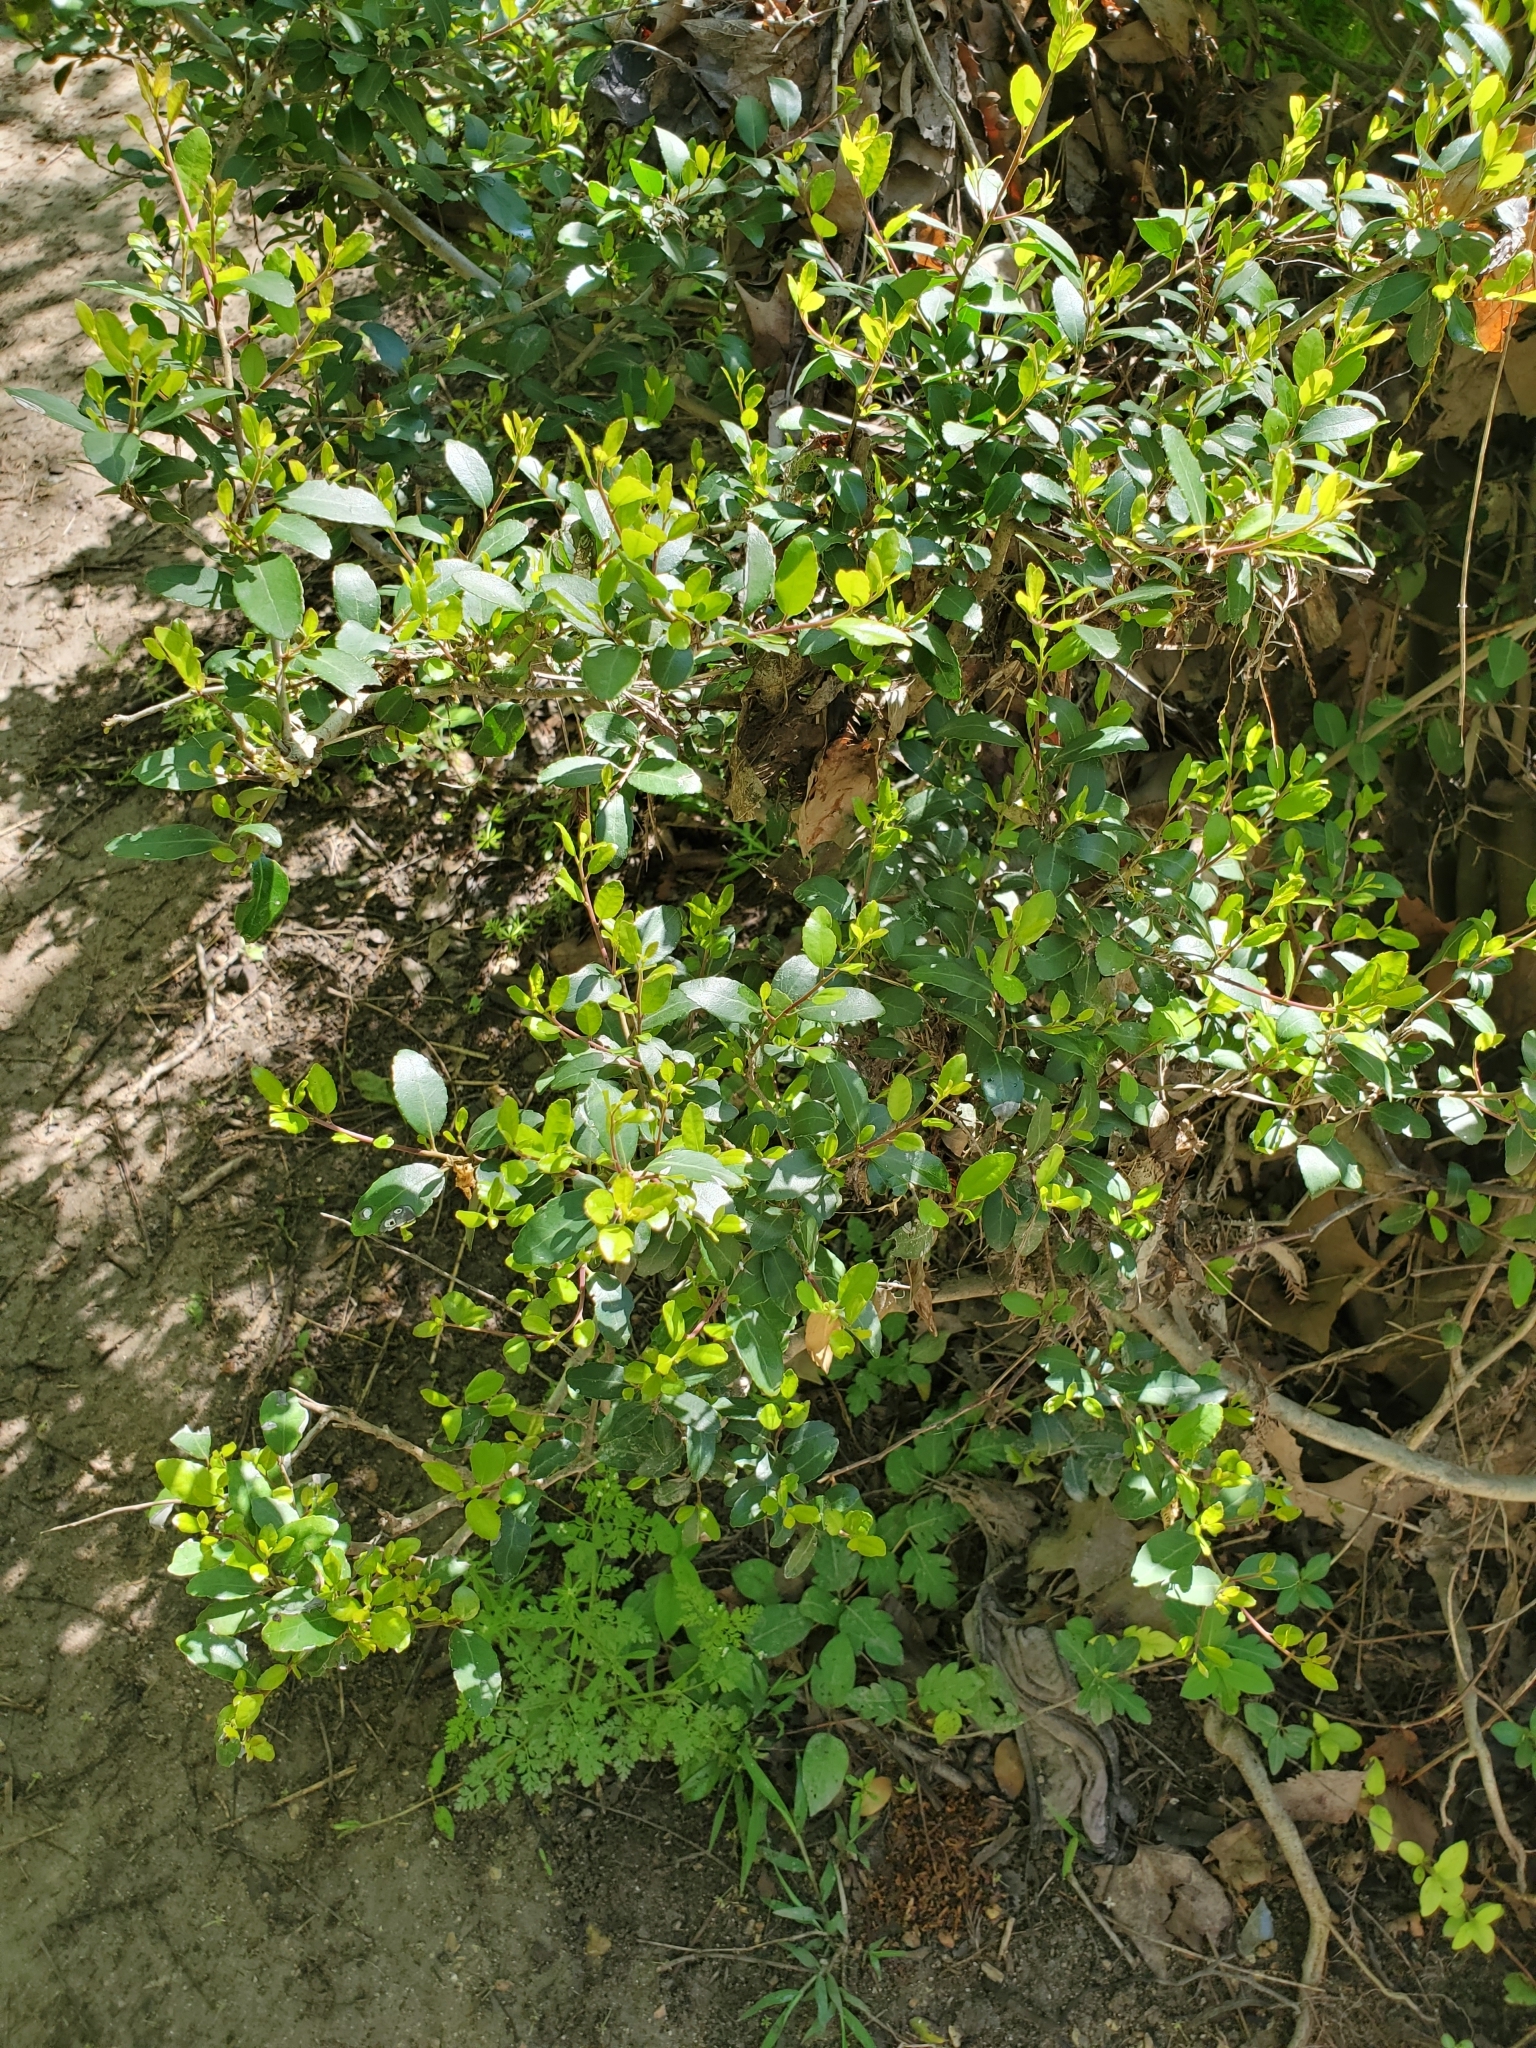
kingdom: Plantae
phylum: Tracheophyta
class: Magnoliopsida
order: Aquifoliales
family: Aquifoliaceae
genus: Ilex
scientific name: Ilex vomitoria
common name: Yaupon holly
